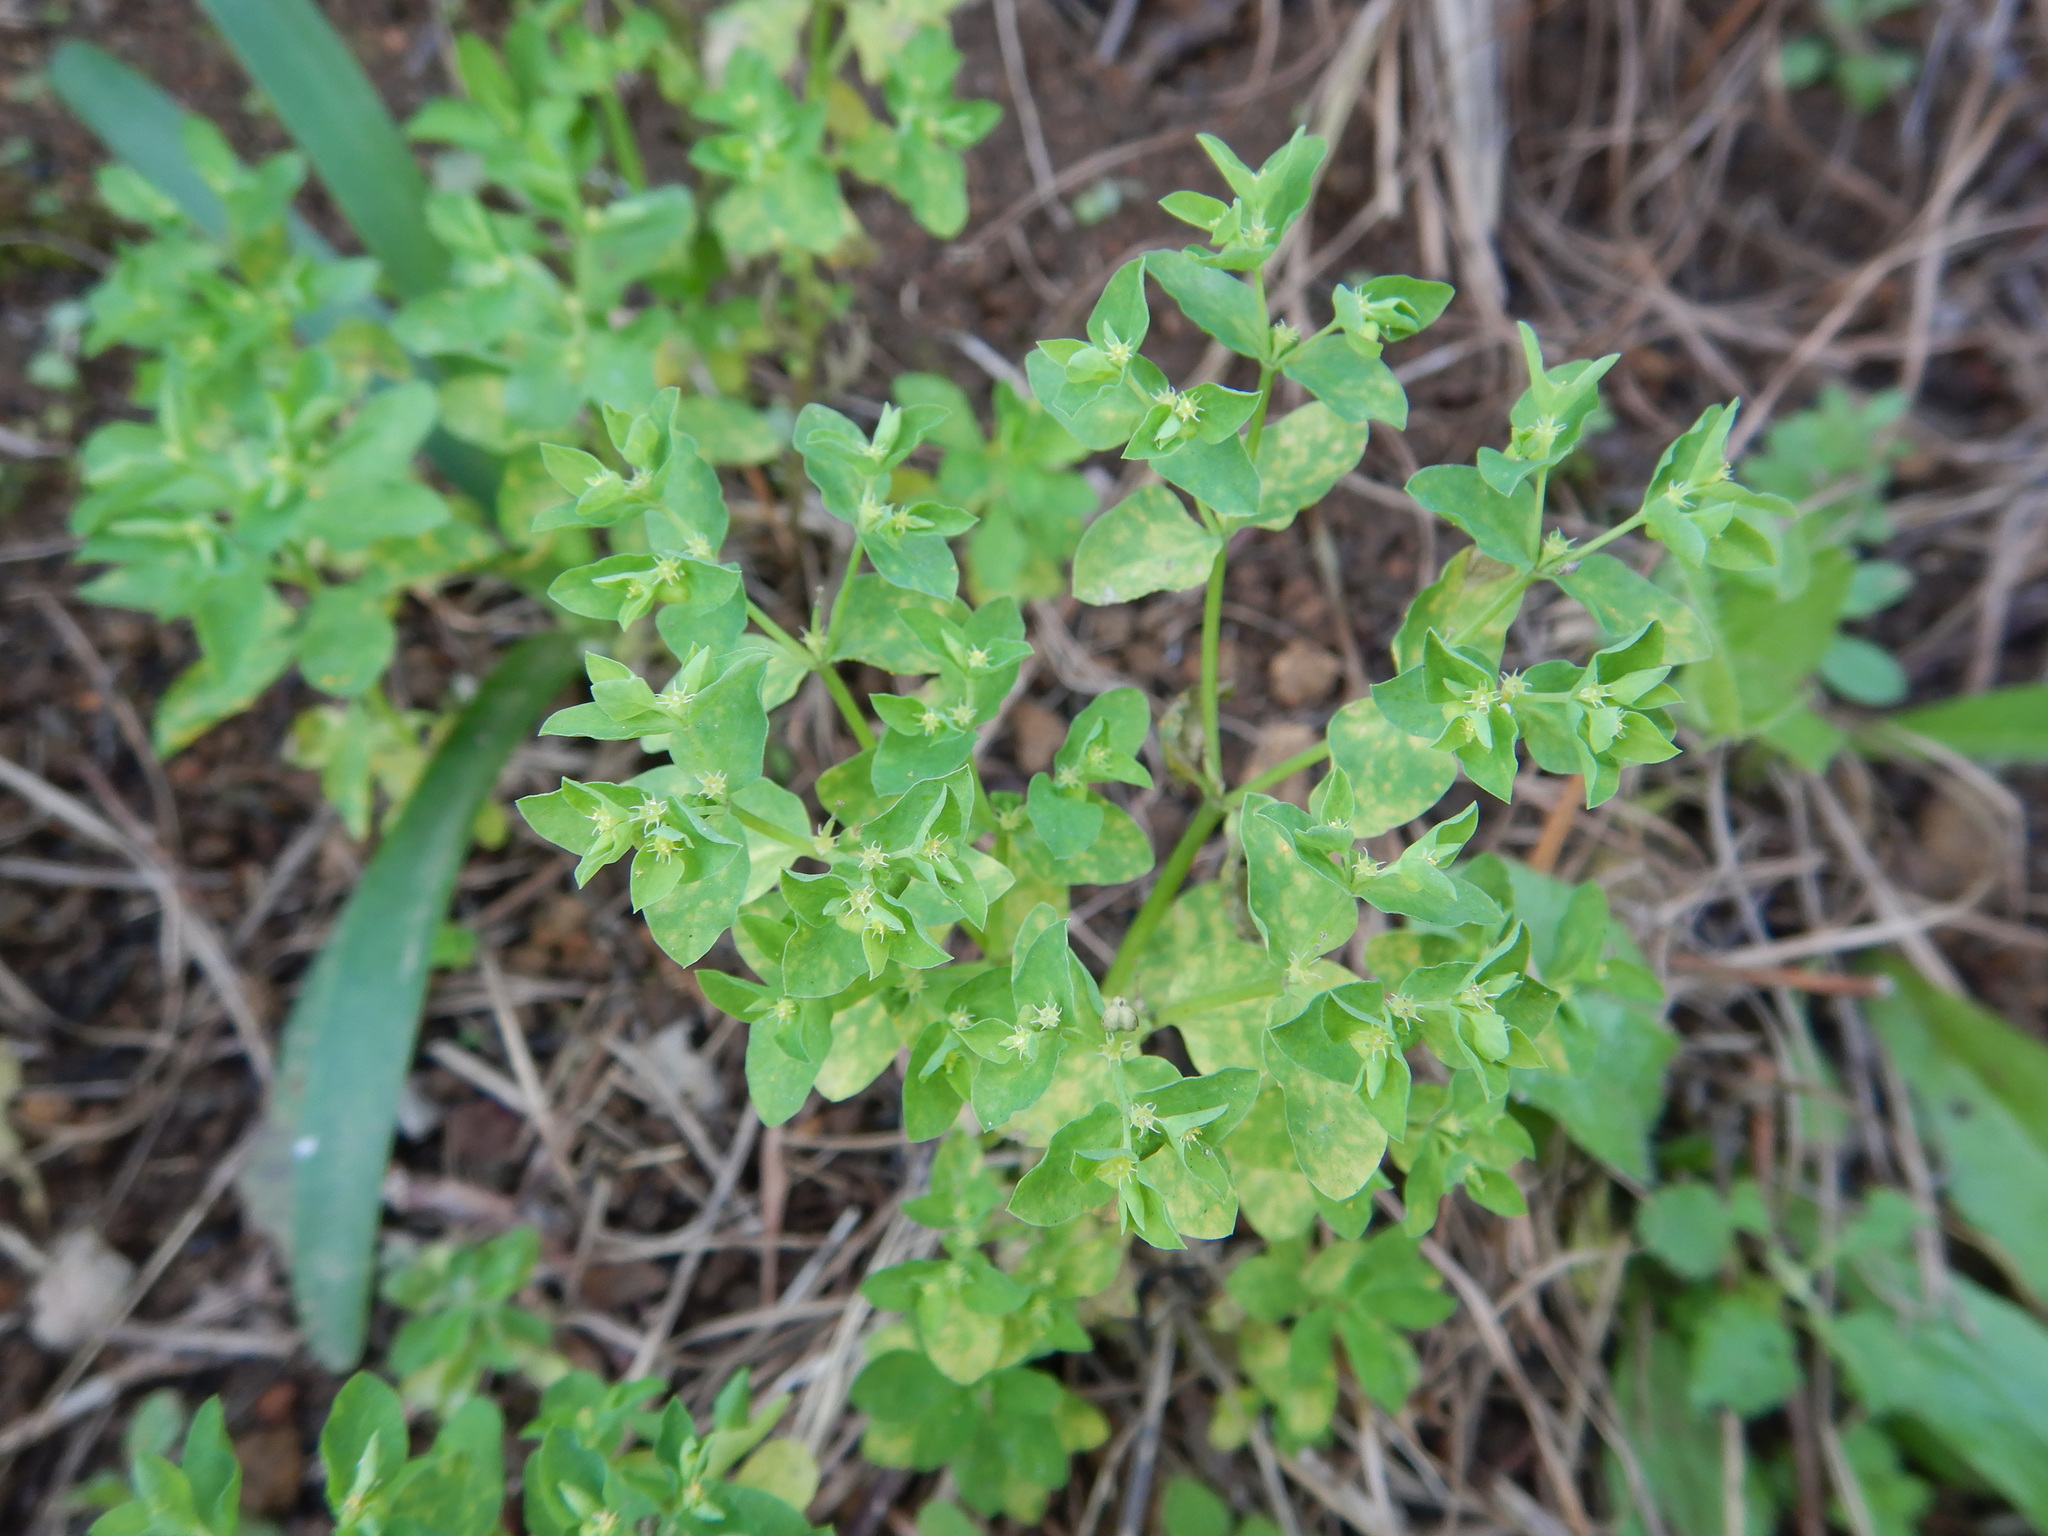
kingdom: Plantae
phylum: Tracheophyta
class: Magnoliopsida
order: Malpighiales
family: Euphorbiaceae
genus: Euphorbia
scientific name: Euphorbia peplus
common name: Petty spurge
